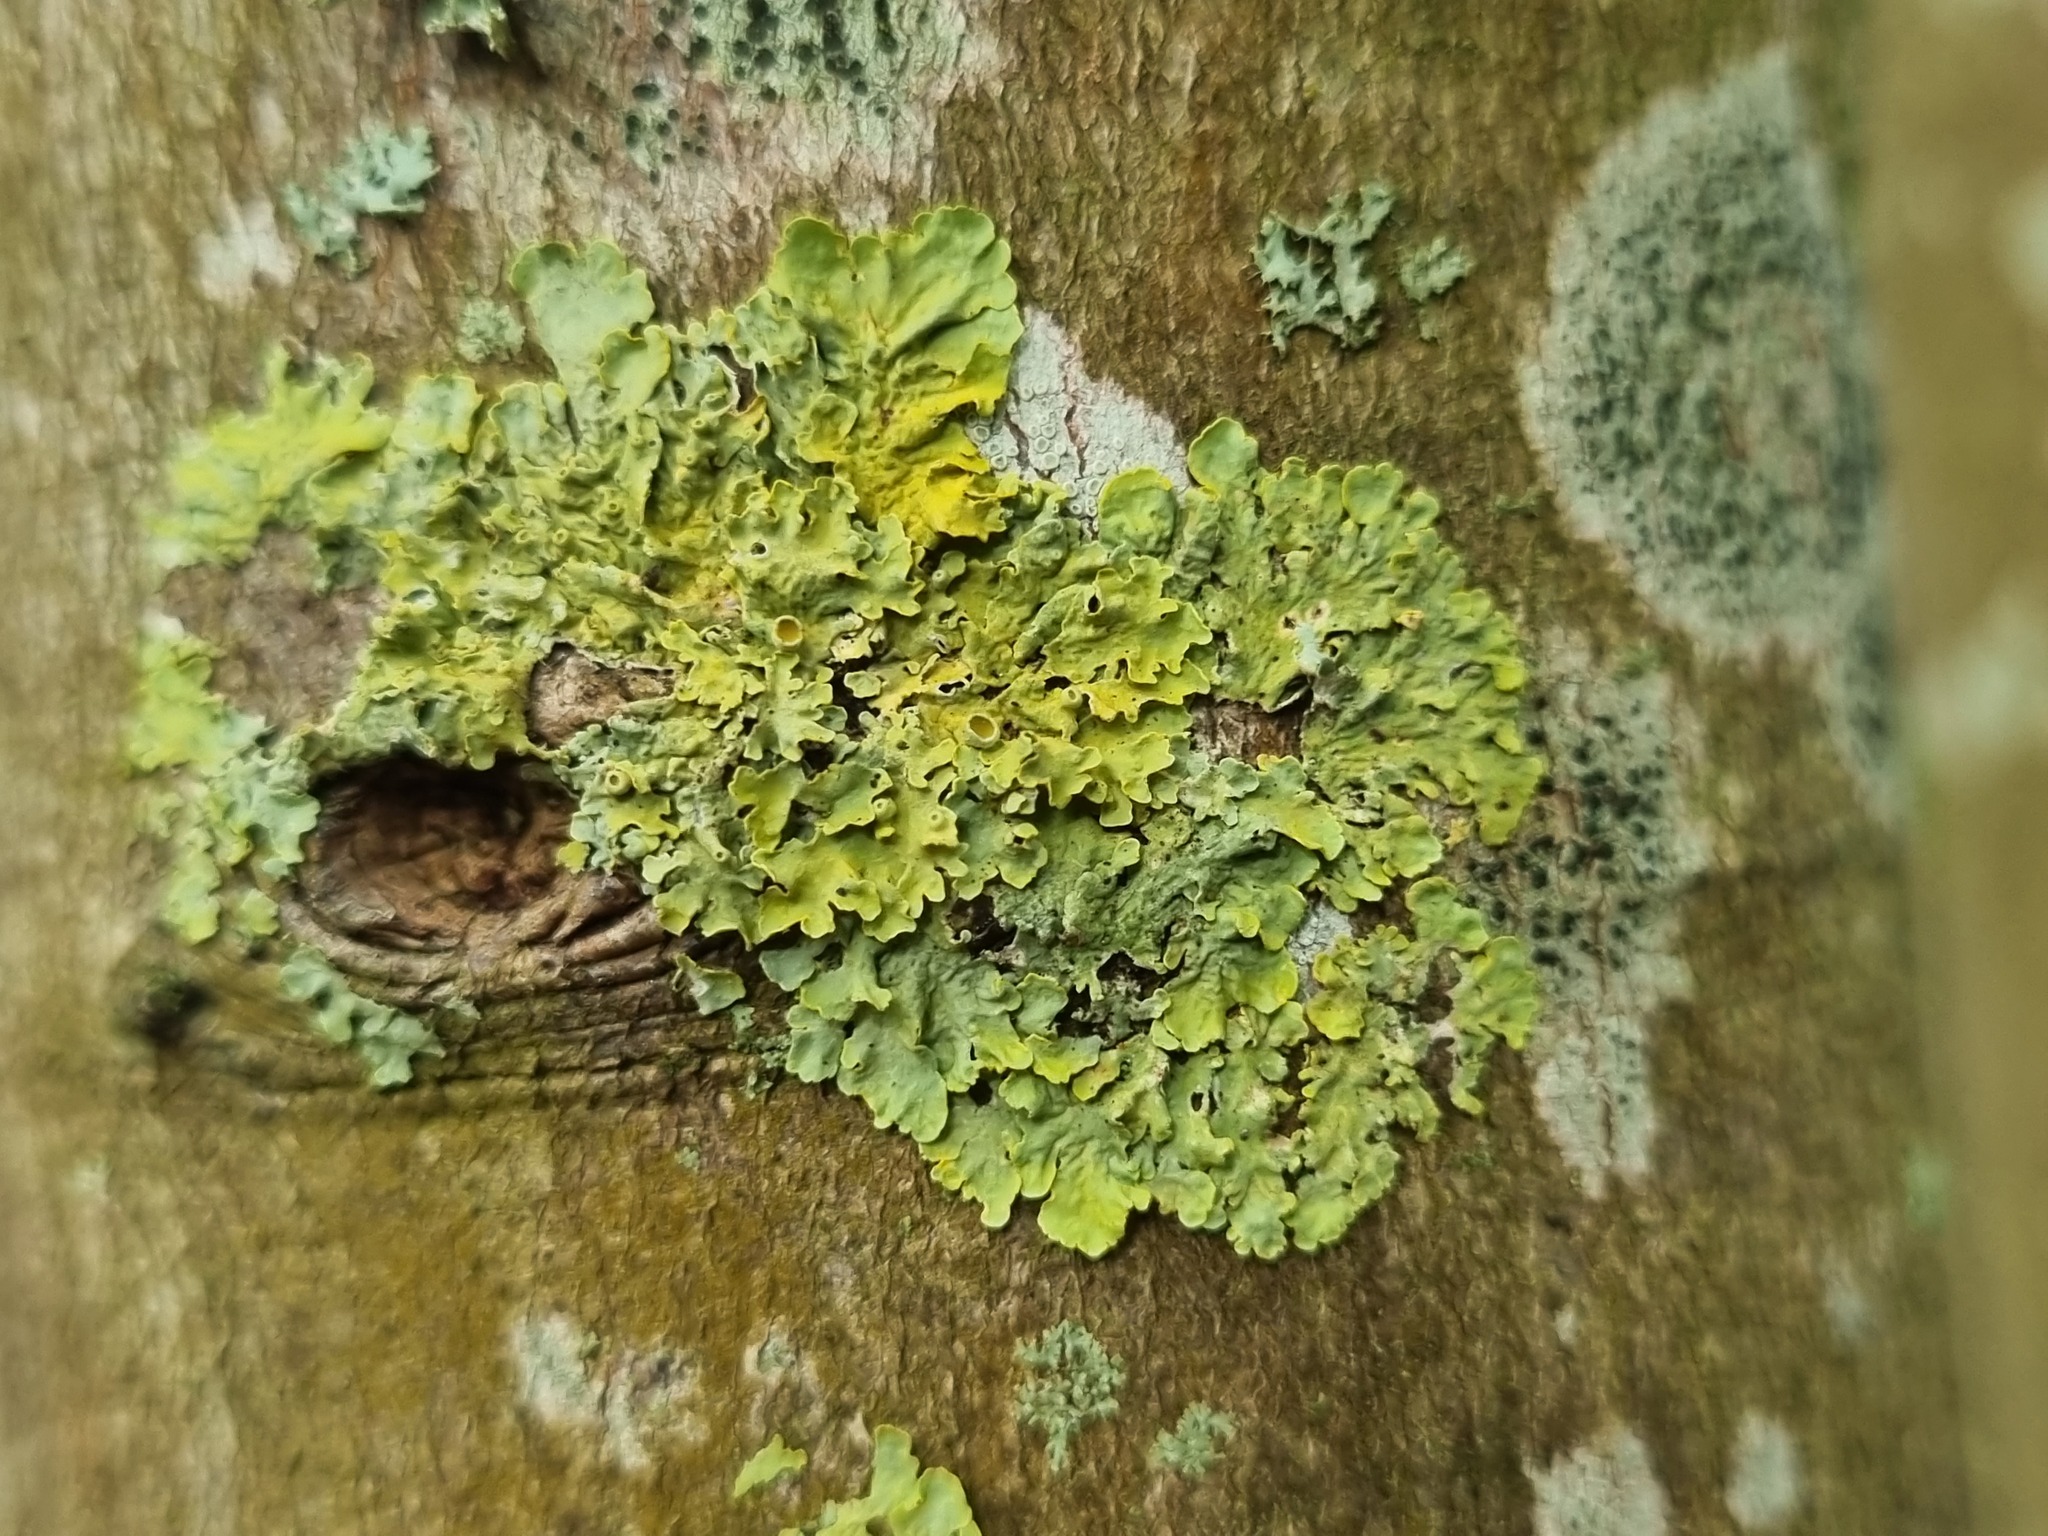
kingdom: Fungi
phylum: Ascomycota
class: Lecanoromycetes
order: Teloschistales
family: Teloschistaceae
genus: Xanthoria
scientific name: Xanthoria parietina
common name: Common orange lichen
